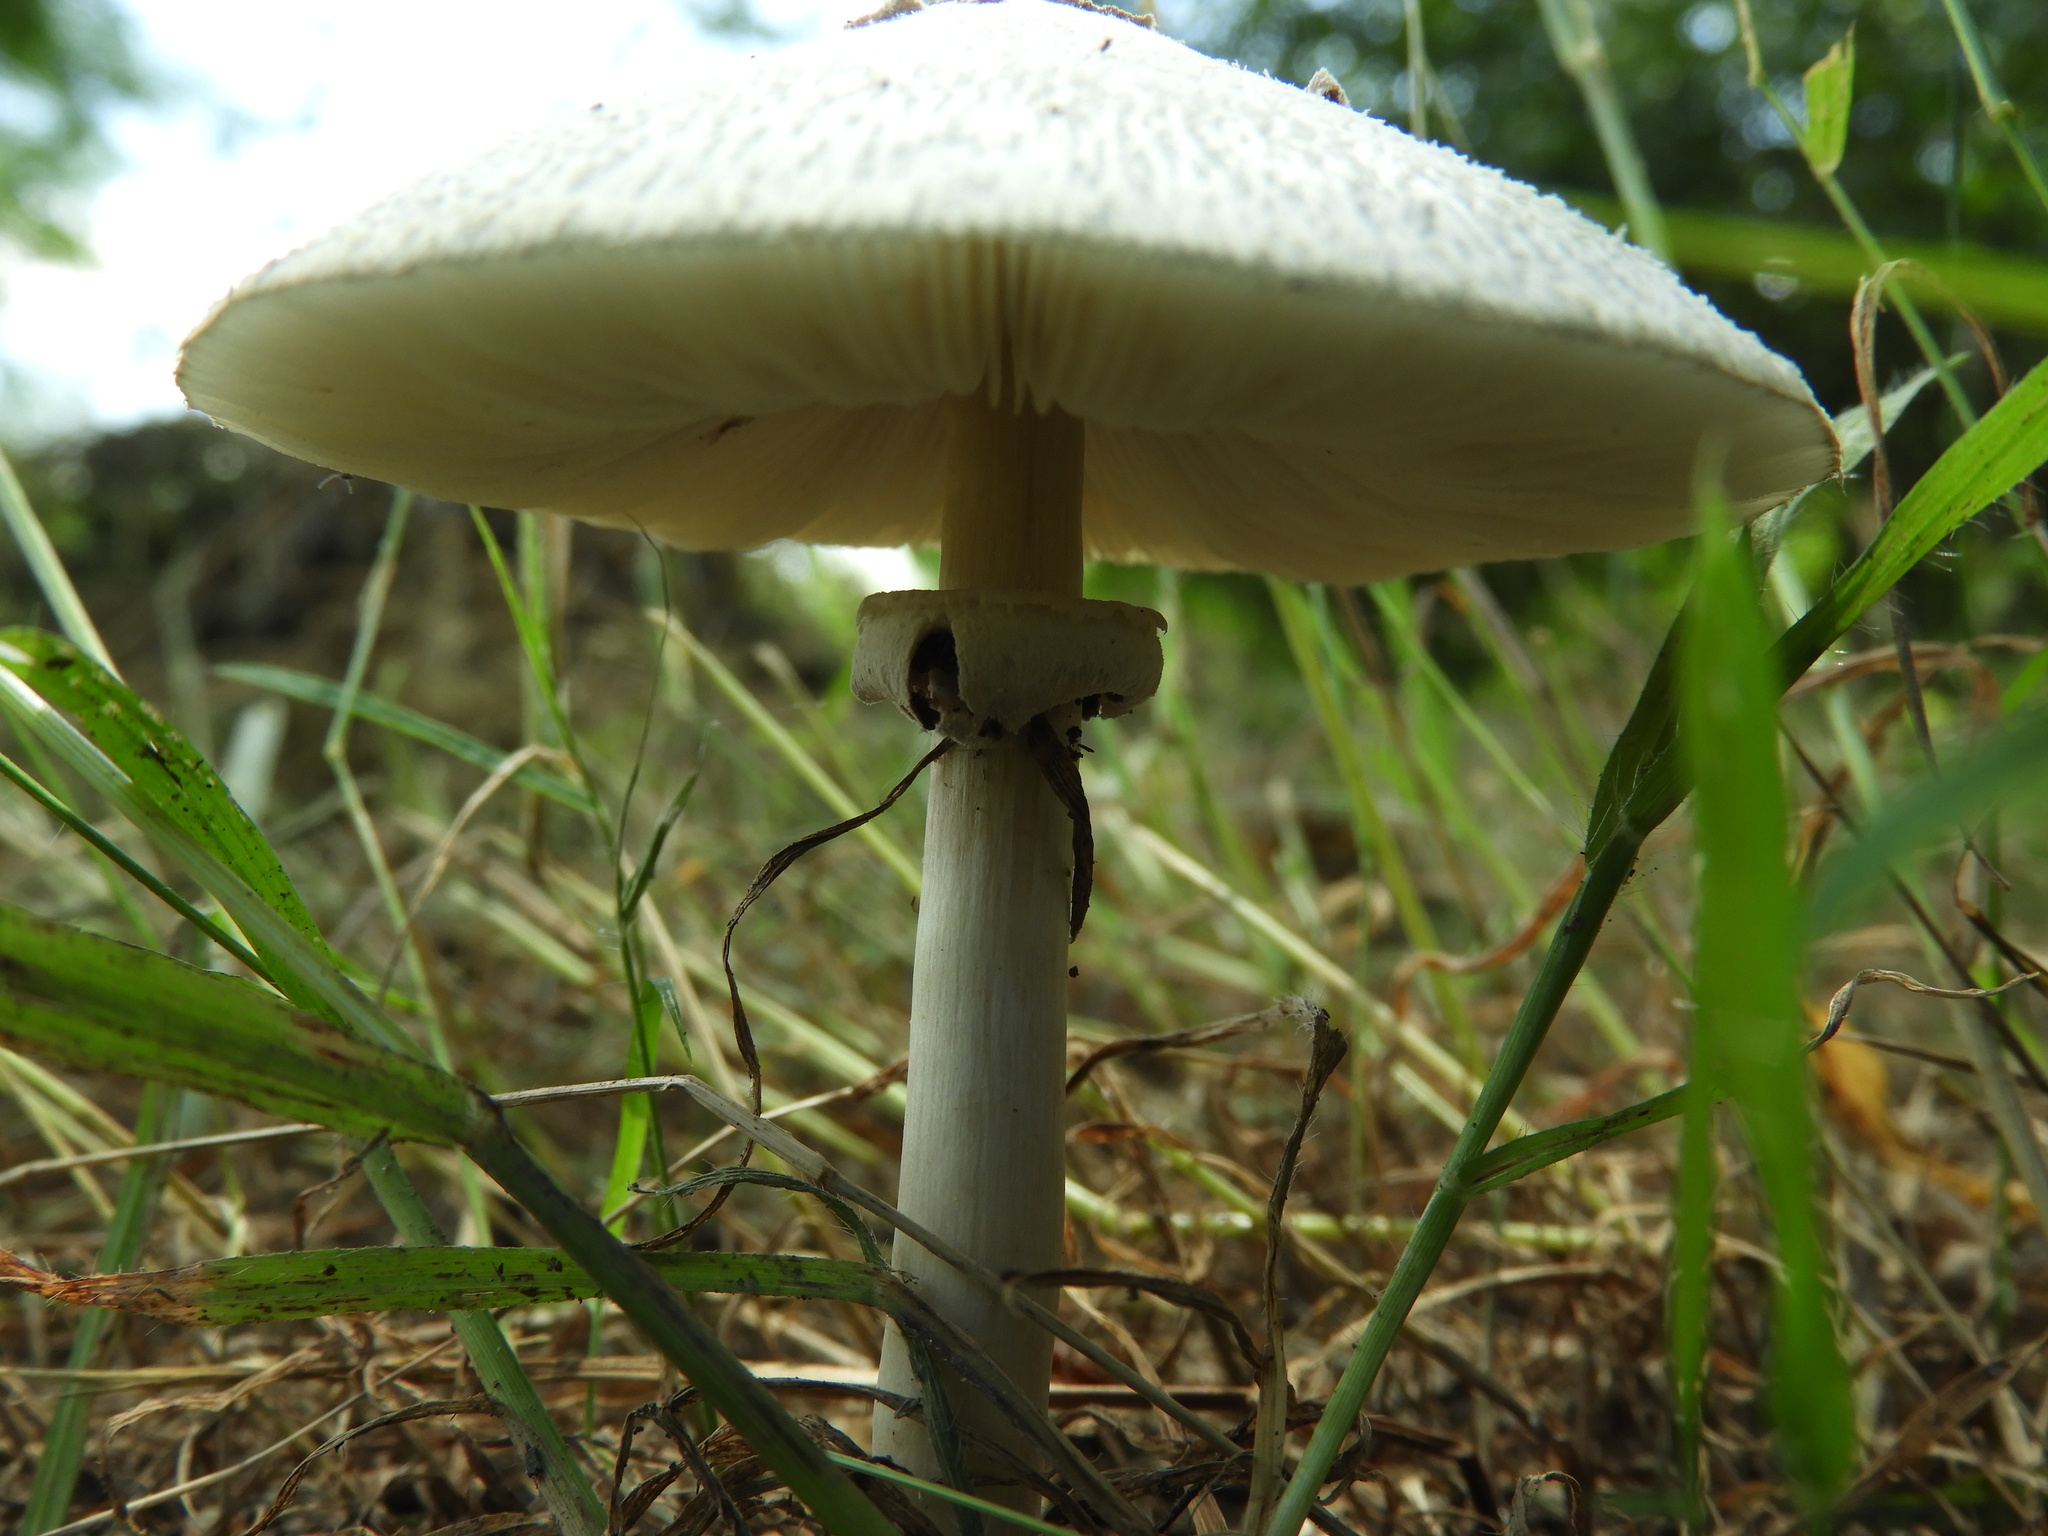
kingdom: Fungi
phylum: Basidiomycota
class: Agaricomycetes
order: Agaricales
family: Agaricaceae
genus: Chlorophyllum
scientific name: Chlorophyllum molybdites
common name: False parasol
